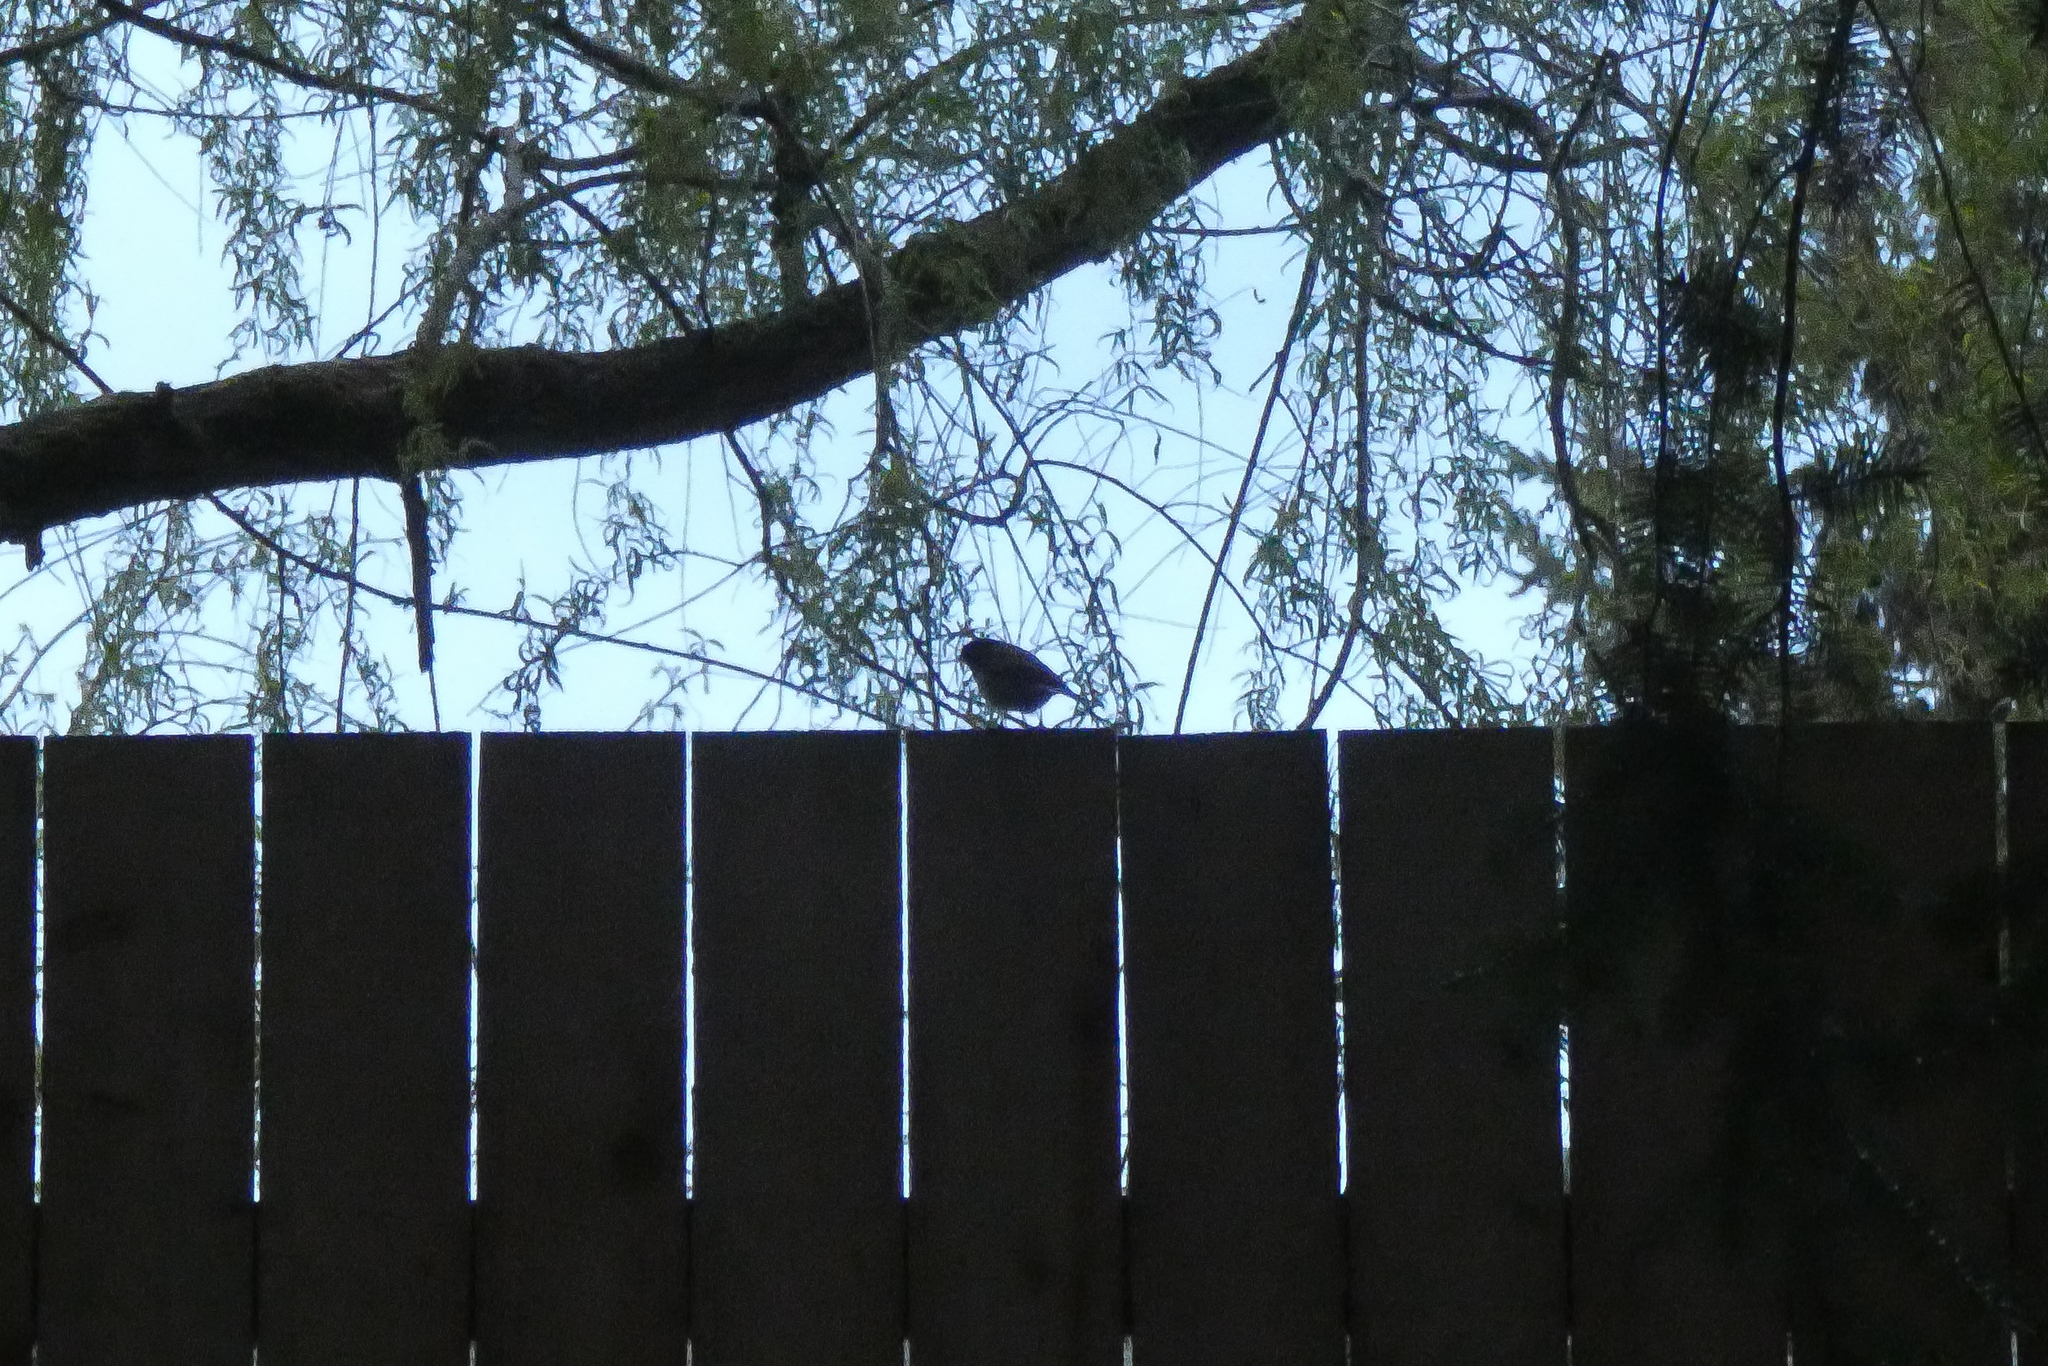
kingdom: Animalia
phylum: Chordata
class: Aves
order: Passeriformes
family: Passerellidae
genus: Junco
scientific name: Junco hyemalis
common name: Dark-eyed junco
